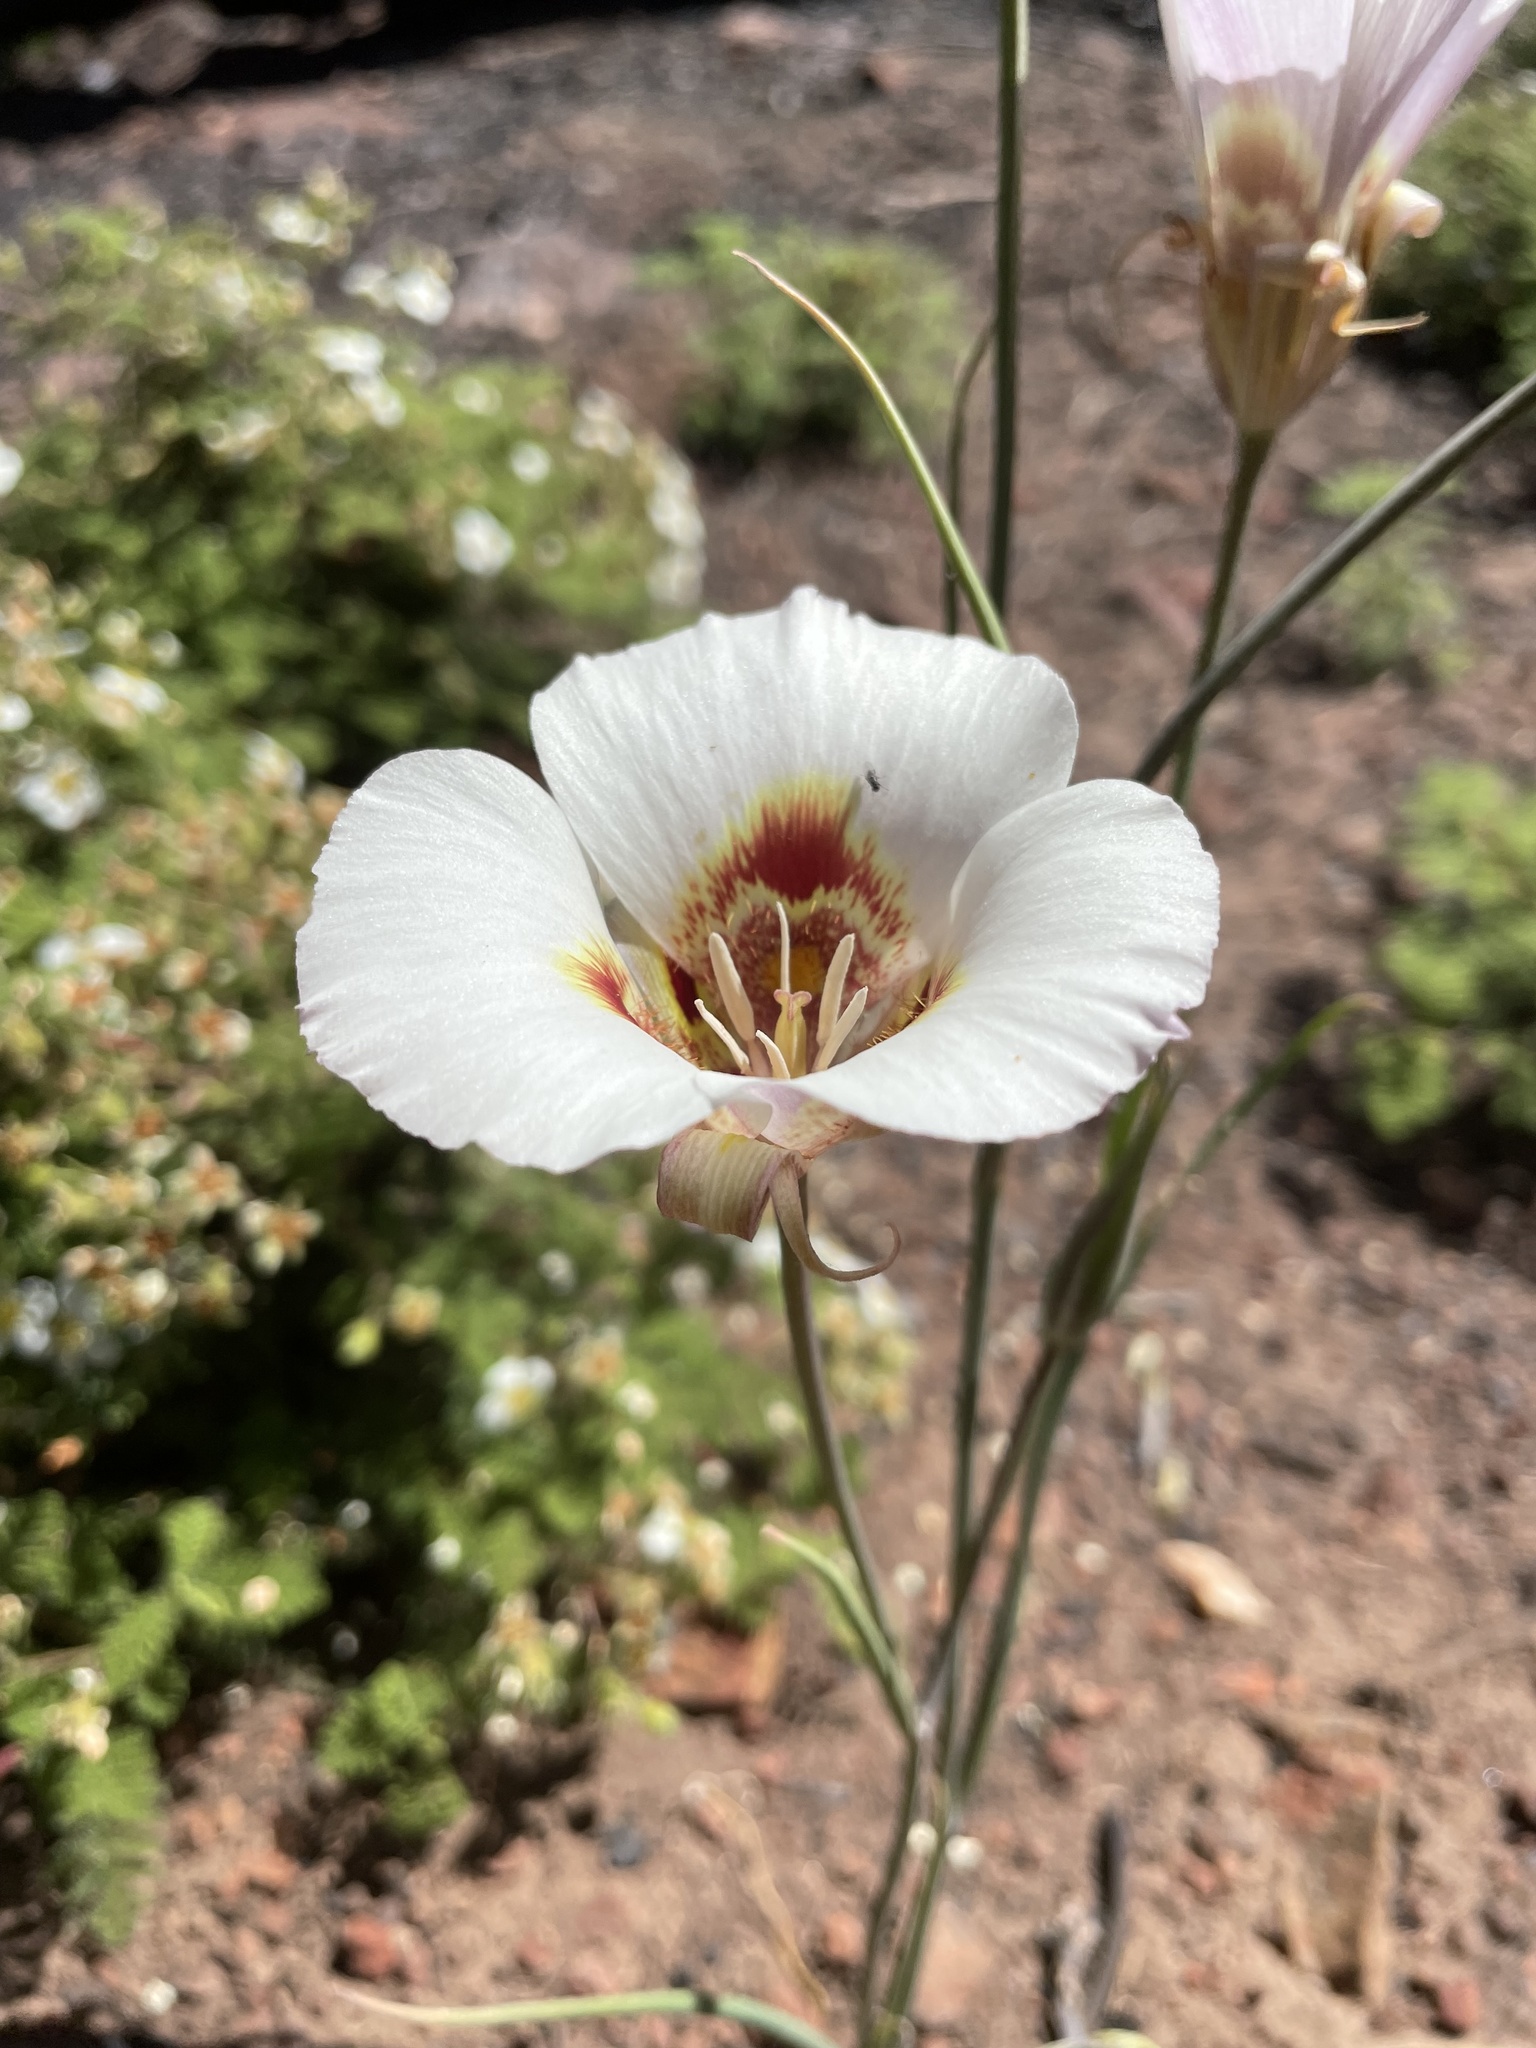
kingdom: Plantae
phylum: Tracheophyta
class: Liliopsida
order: Liliales
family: Liliaceae
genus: Calochortus
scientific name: Calochortus venustus
